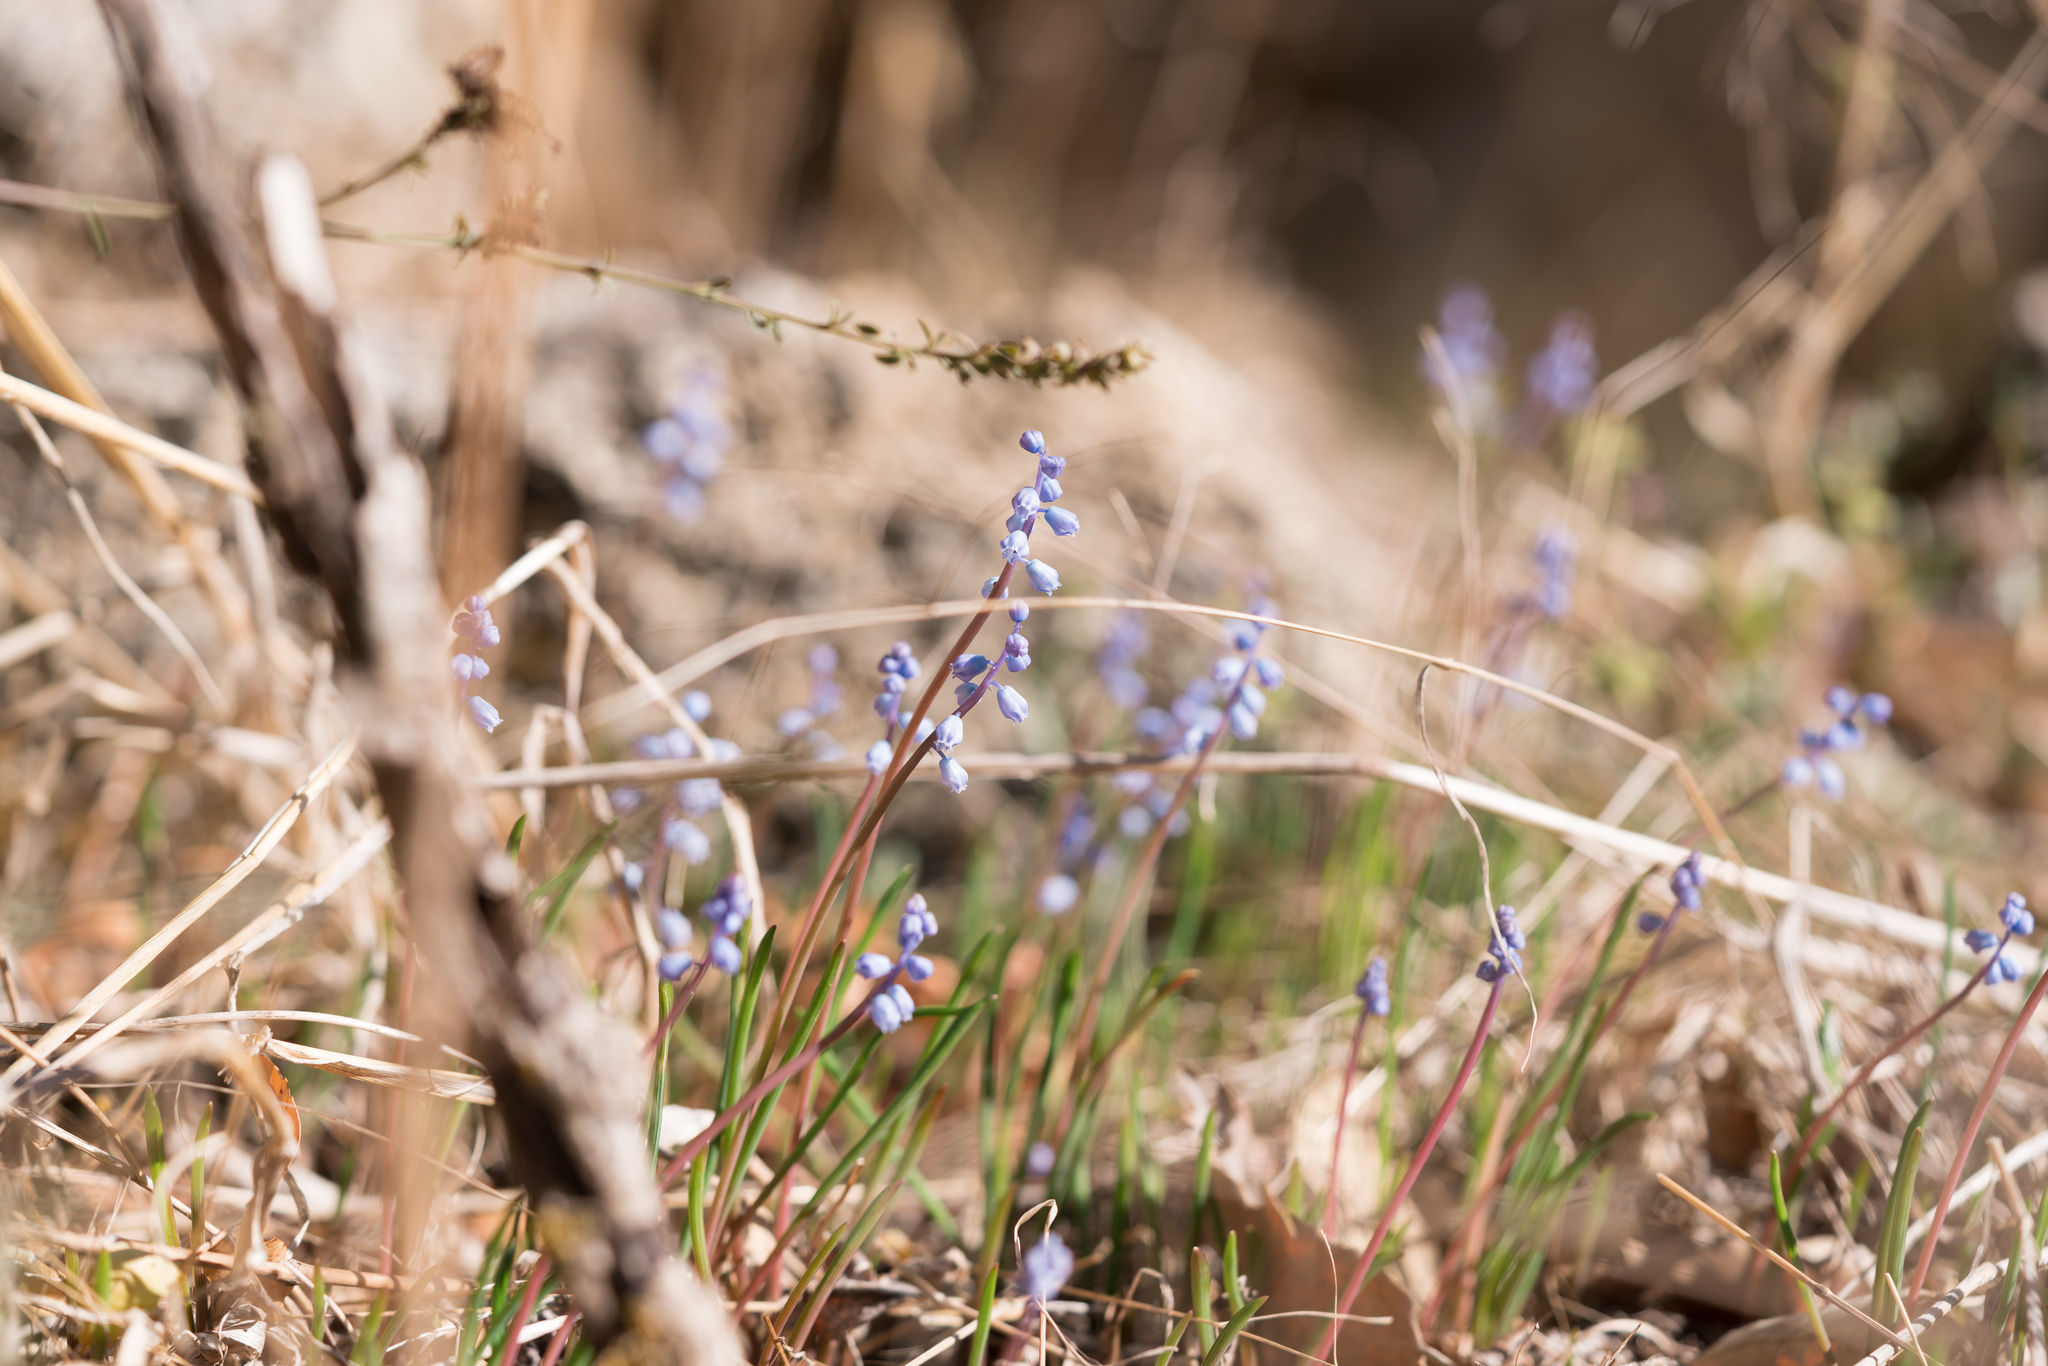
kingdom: Plantae
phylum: Tracheophyta
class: Liliopsida
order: Asparagales
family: Asparagaceae
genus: Muscari
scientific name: Muscari parviflorum
